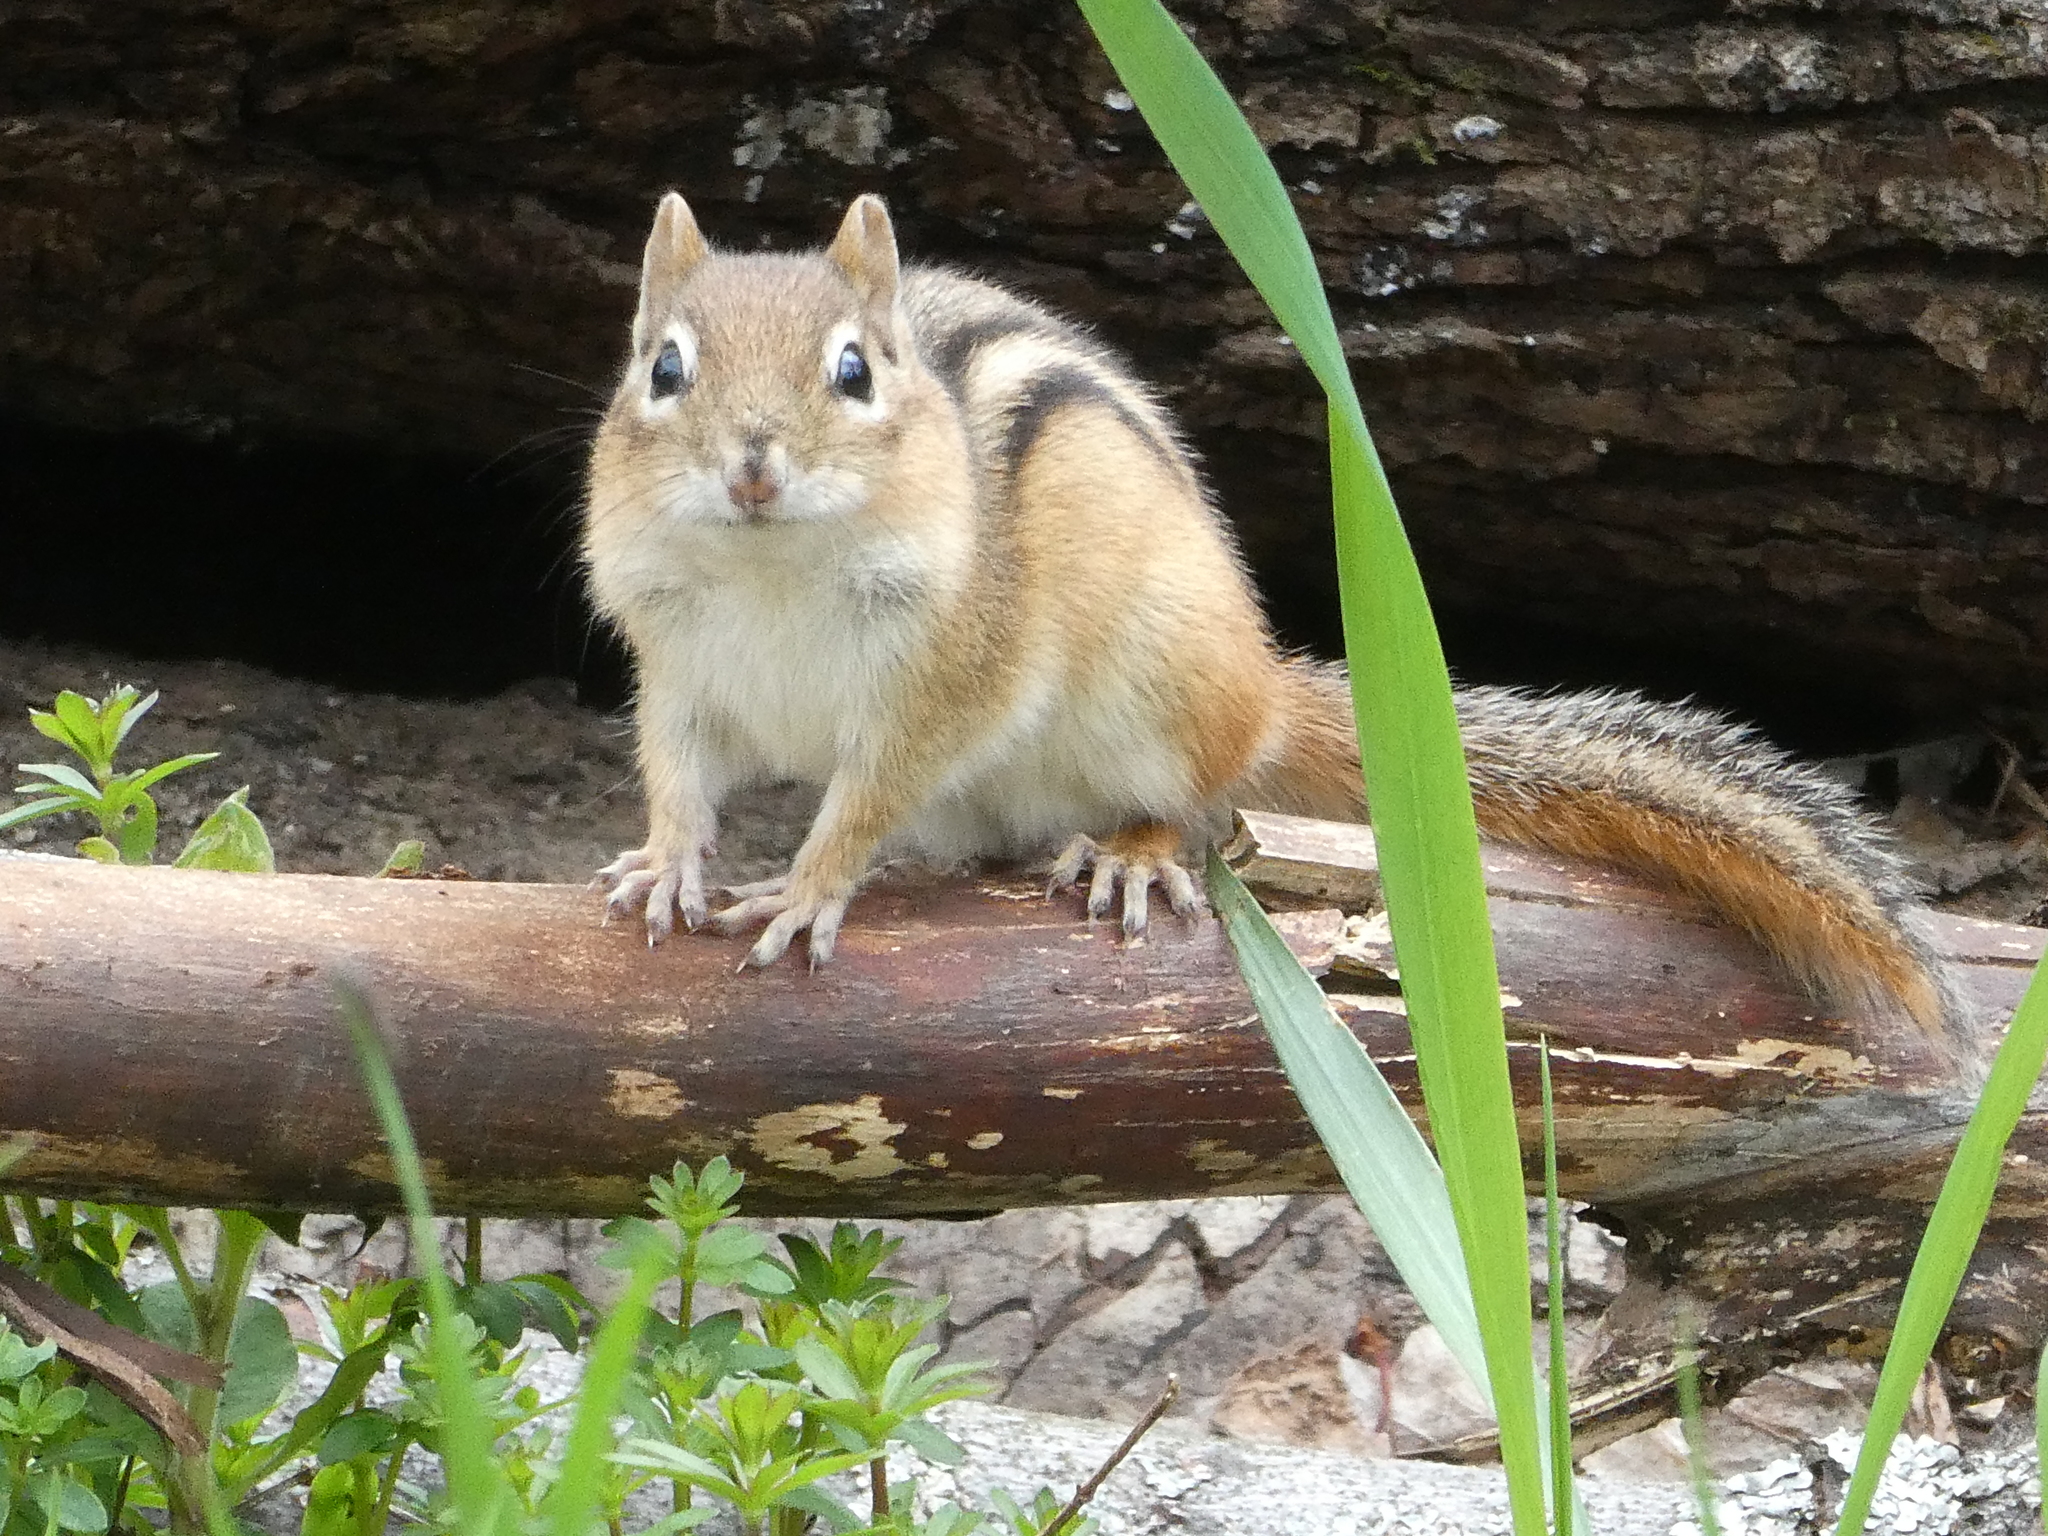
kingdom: Animalia
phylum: Chordata
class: Mammalia
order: Rodentia
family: Sciuridae
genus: Tamias
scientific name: Tamias striatus
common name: Eastern chipmunk
